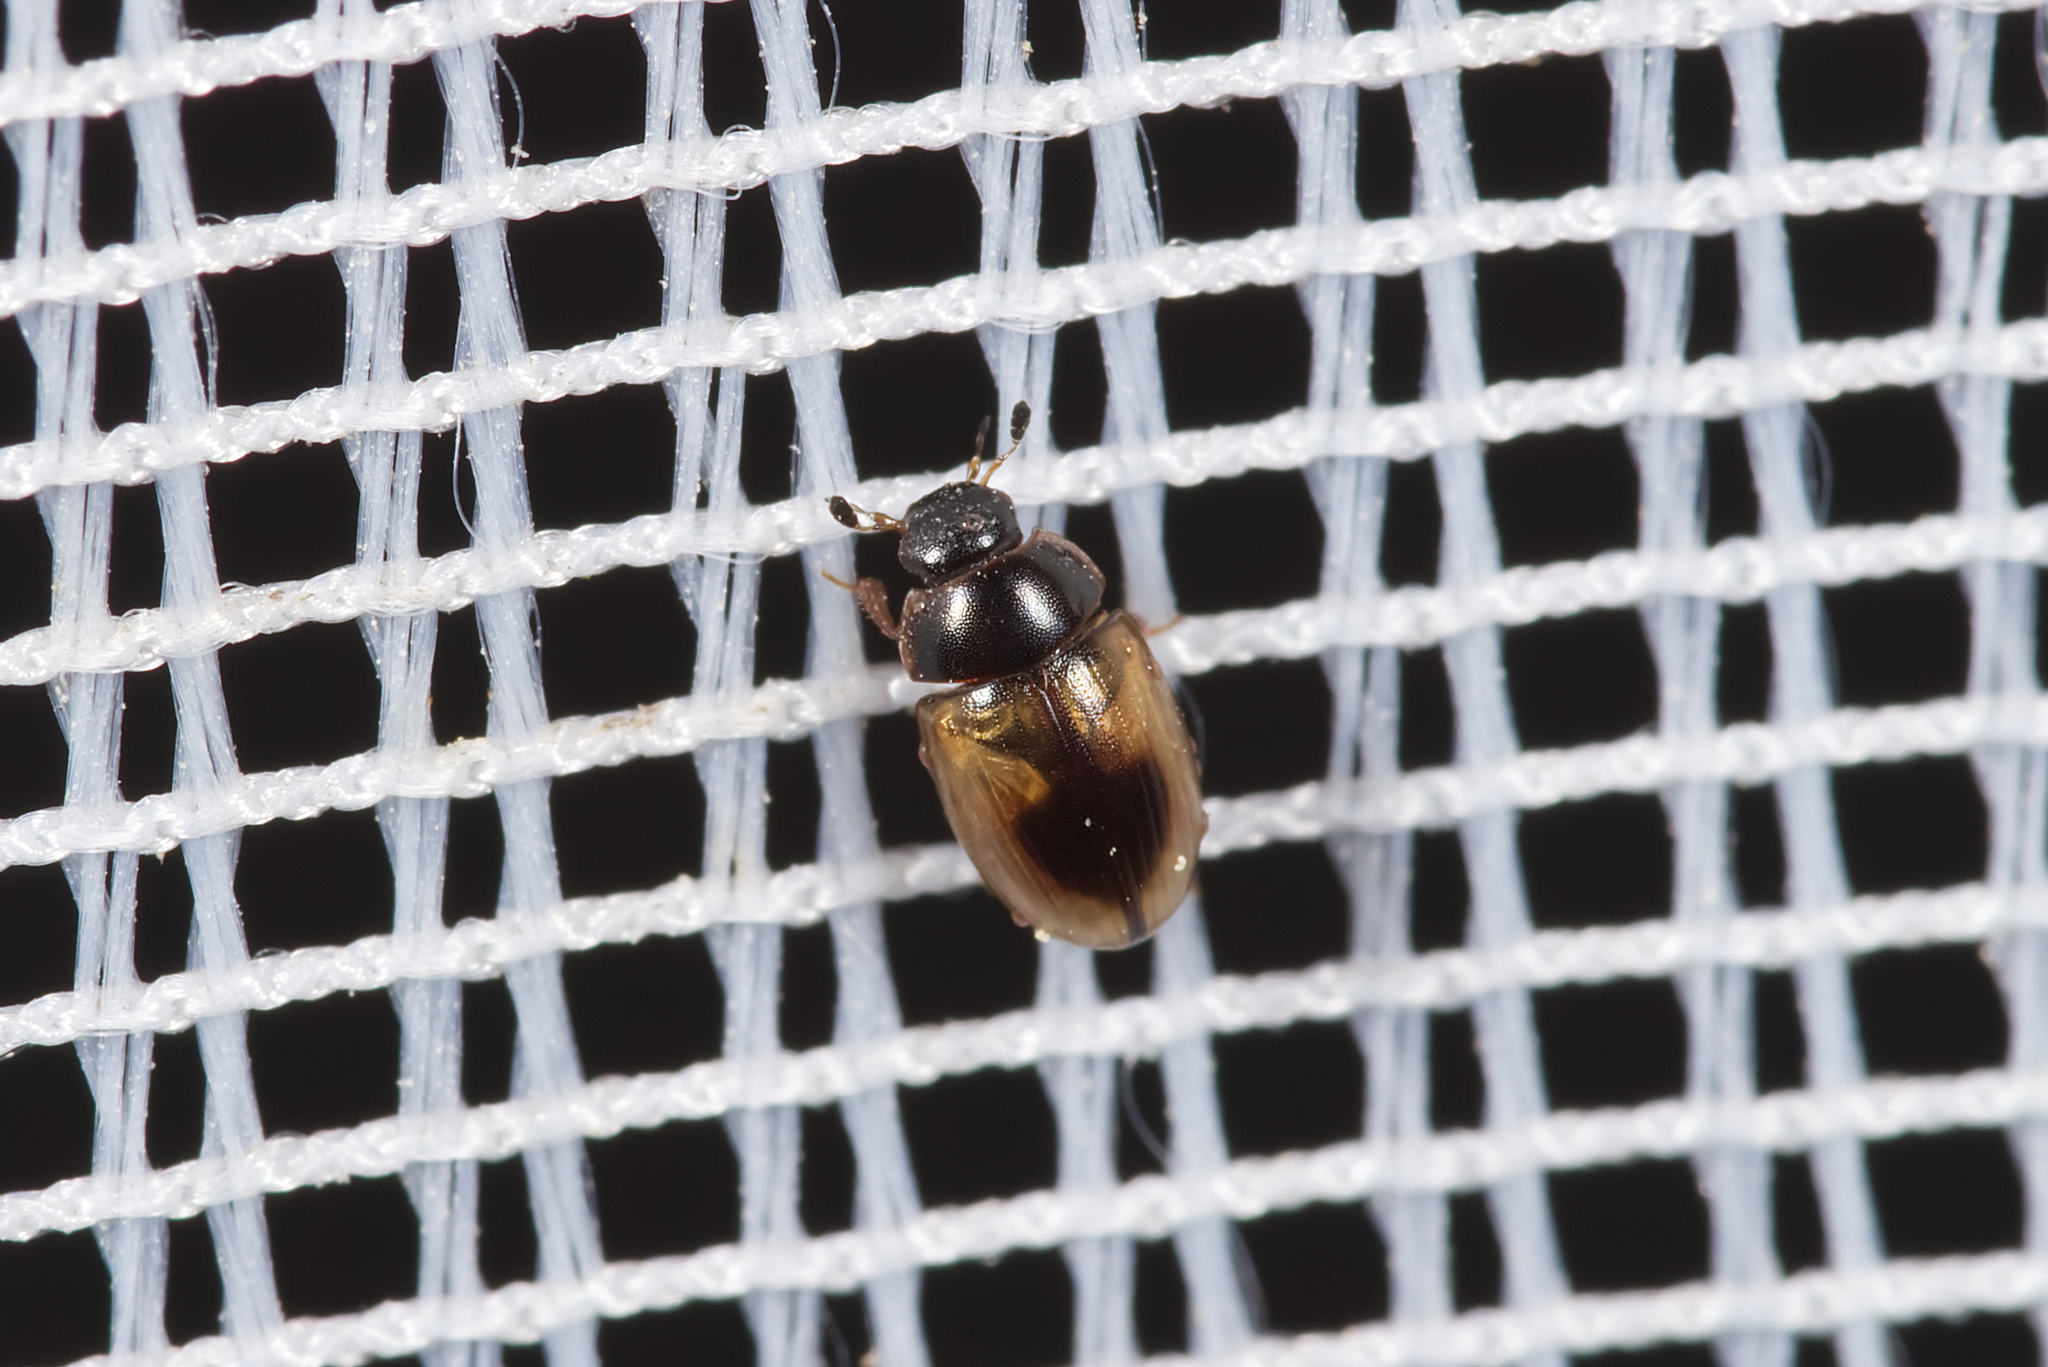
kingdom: Animalia
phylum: Arthropoda
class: Insecta
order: Coleoptera
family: Hydrophilidae
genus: Cercyon
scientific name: Cercyon unipunctatus
